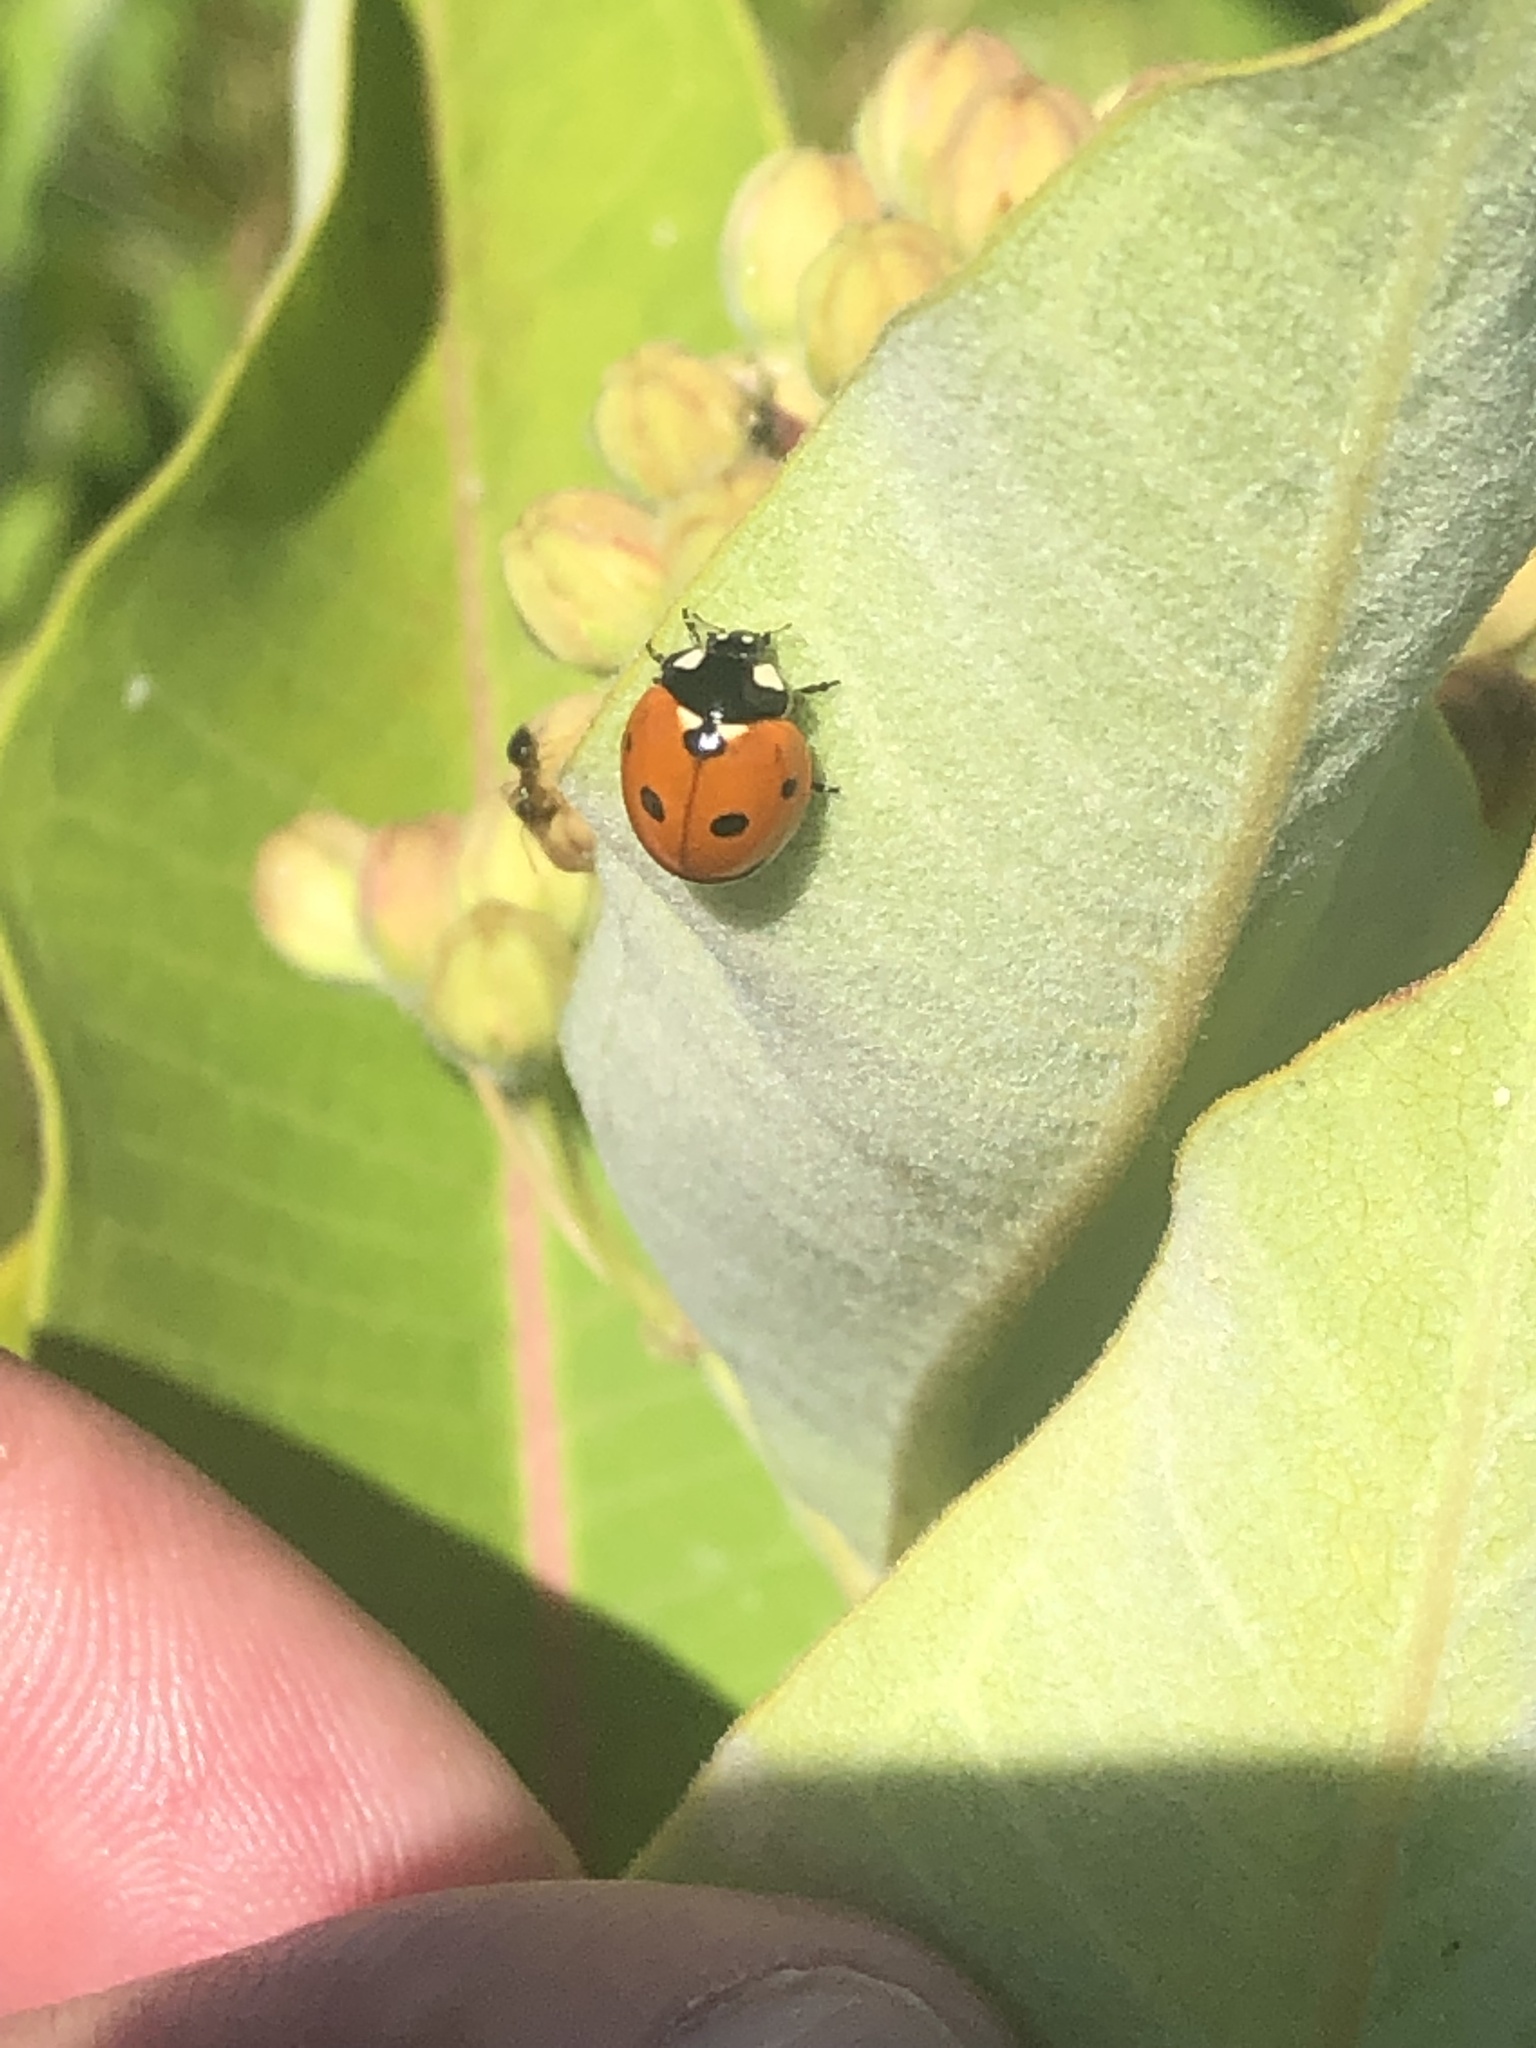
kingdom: Animalia
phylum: Arthropoda
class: Insecta
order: Coleoptera
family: Coccinellidae
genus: Coccinella
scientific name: Coccinella septempunctata
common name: Sevenspotted lady beetle
